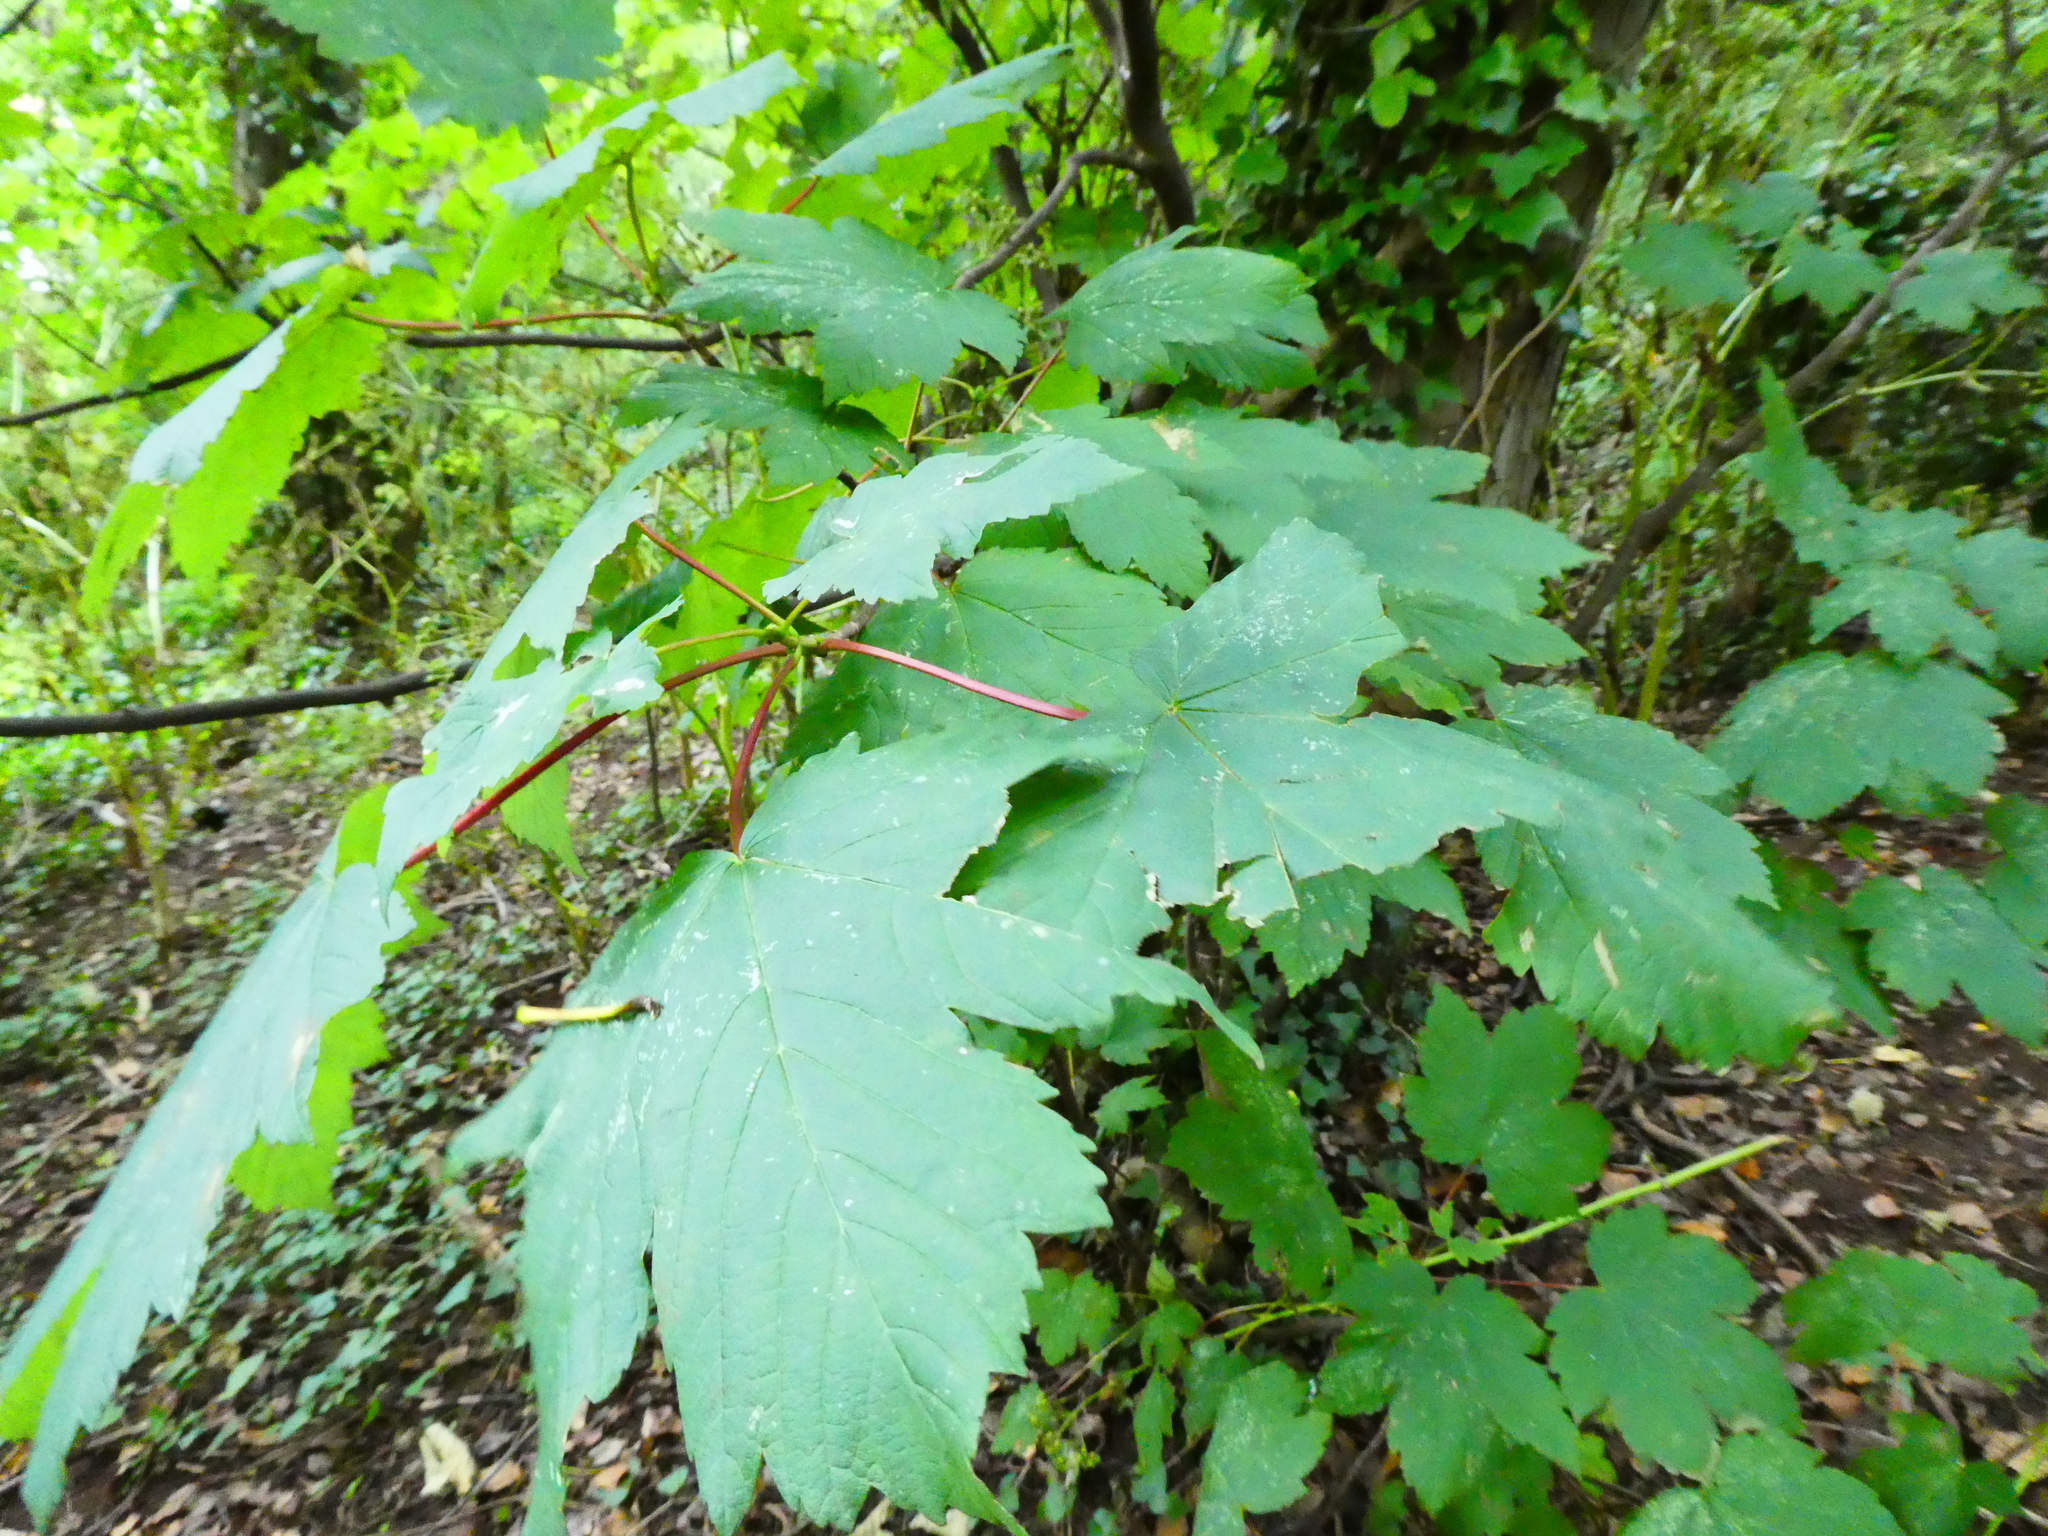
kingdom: Plantae
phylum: Tracheophyta
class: Magnoliopsida
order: Sapindales
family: Sapindaceae
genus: Acer
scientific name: Acer pseudoplatanus
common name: Sycamore
